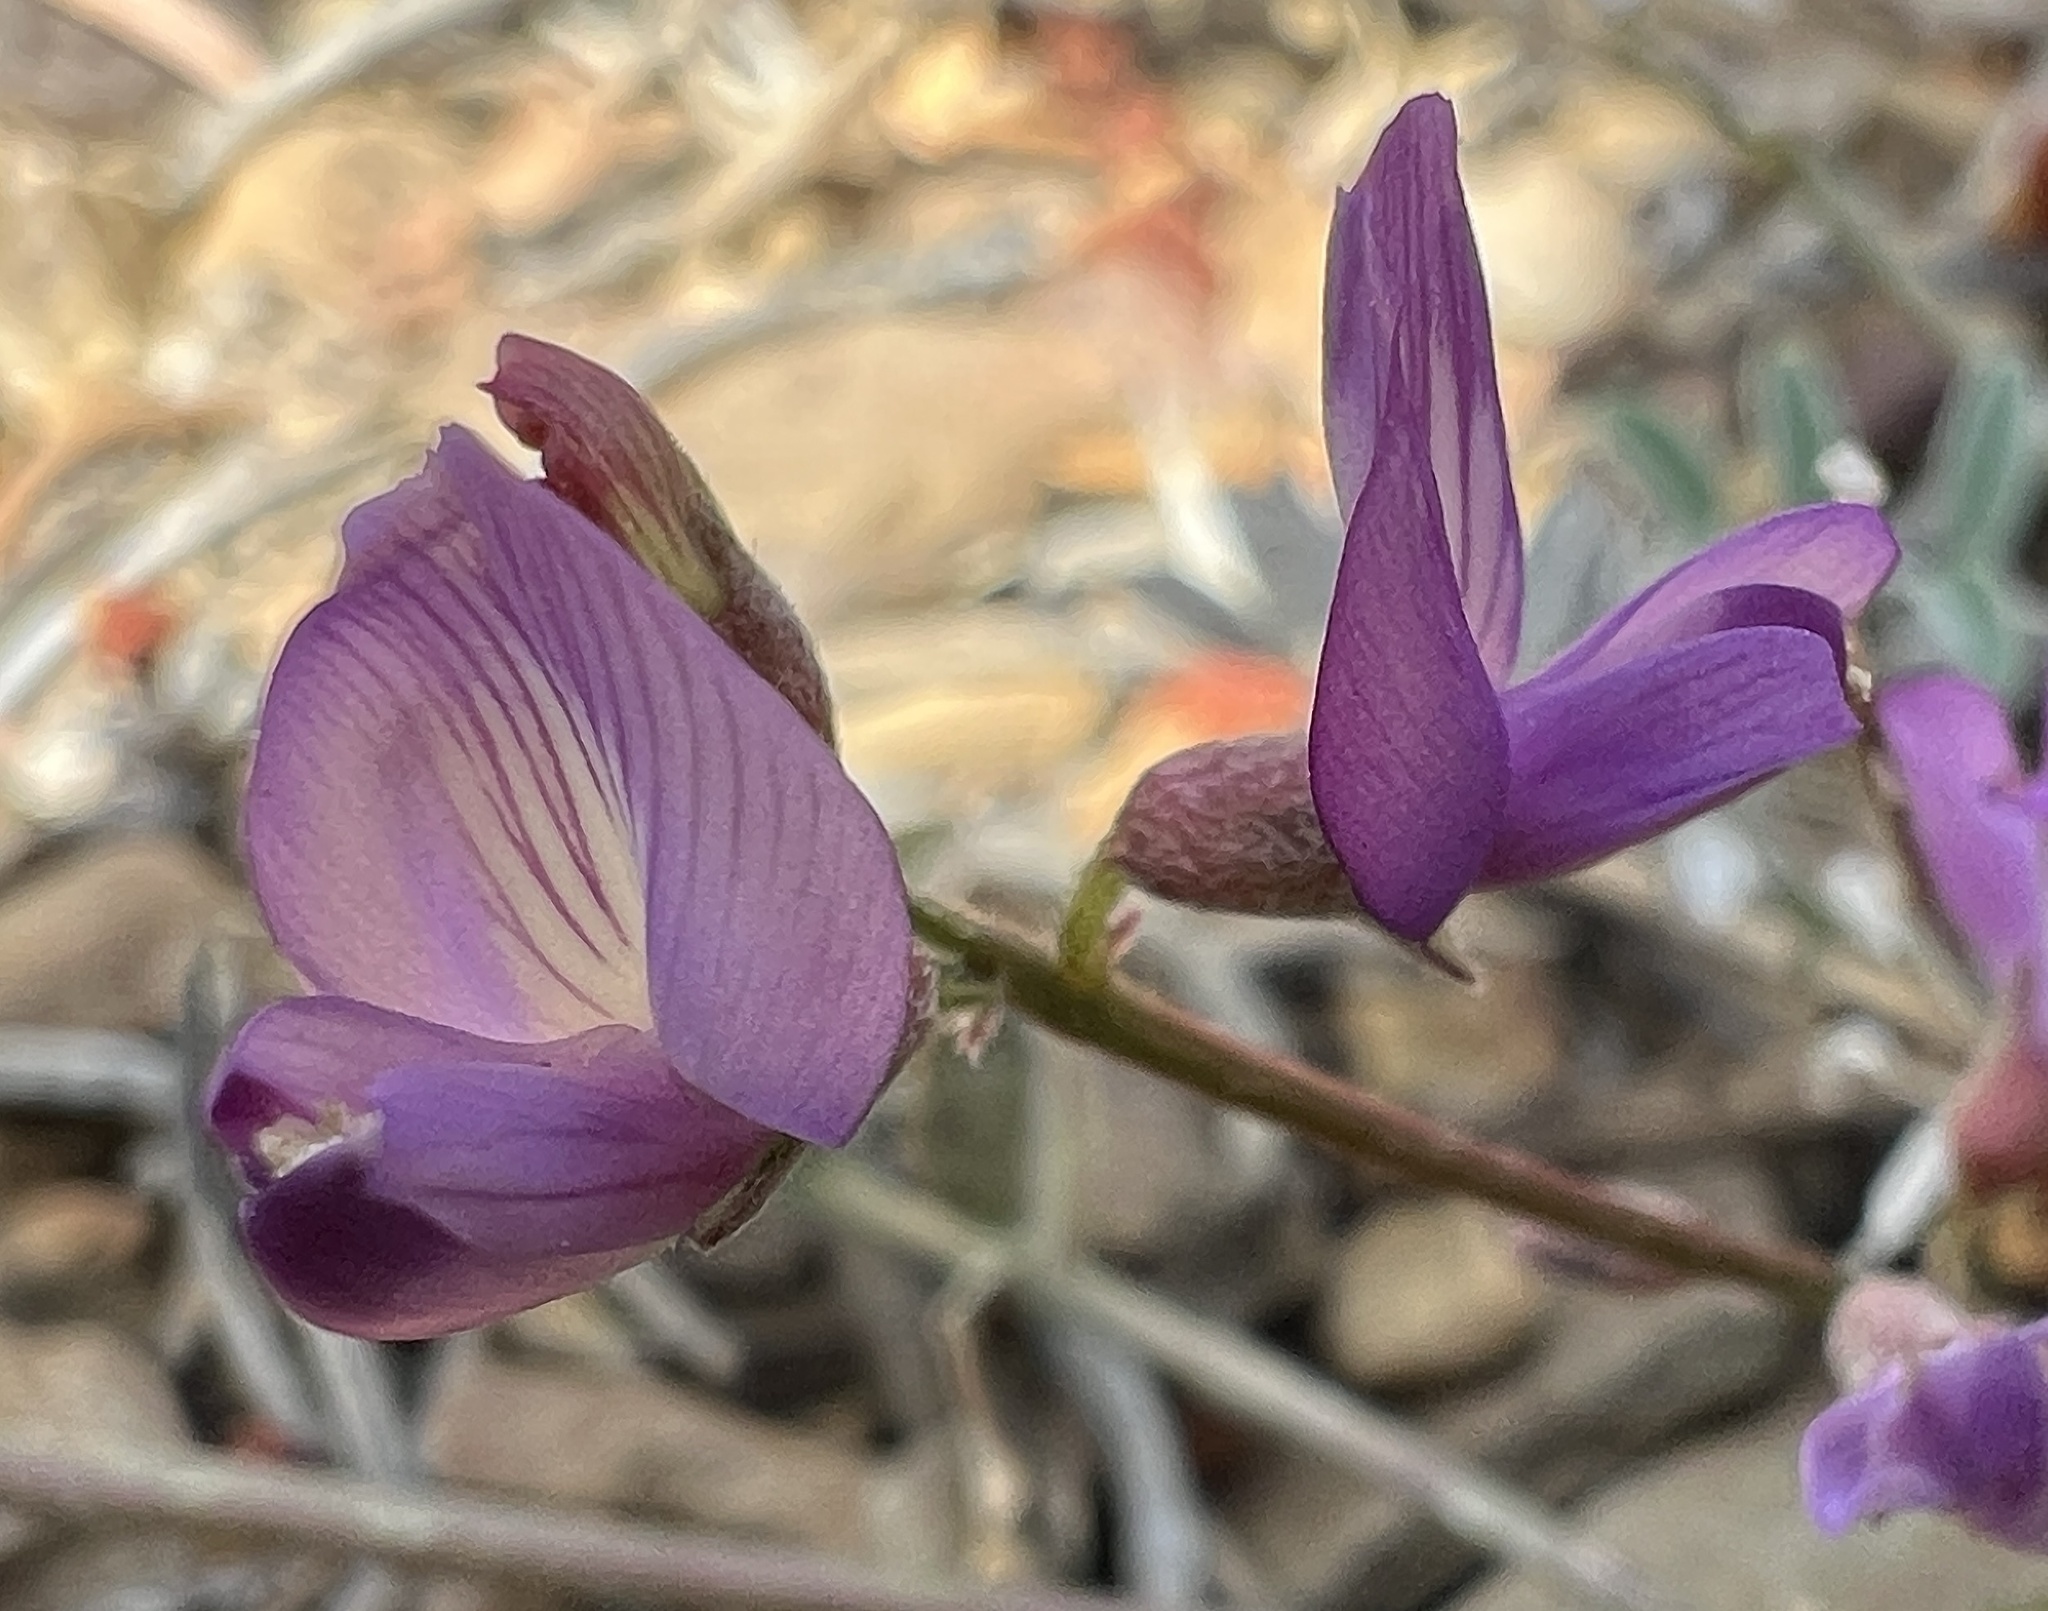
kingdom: Plantae
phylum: Tracheophyta
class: Magnoliopsida
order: Fabales
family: Fabaceae
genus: Astragalus
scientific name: Astragalus inyoensis
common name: Inyo locoweed
